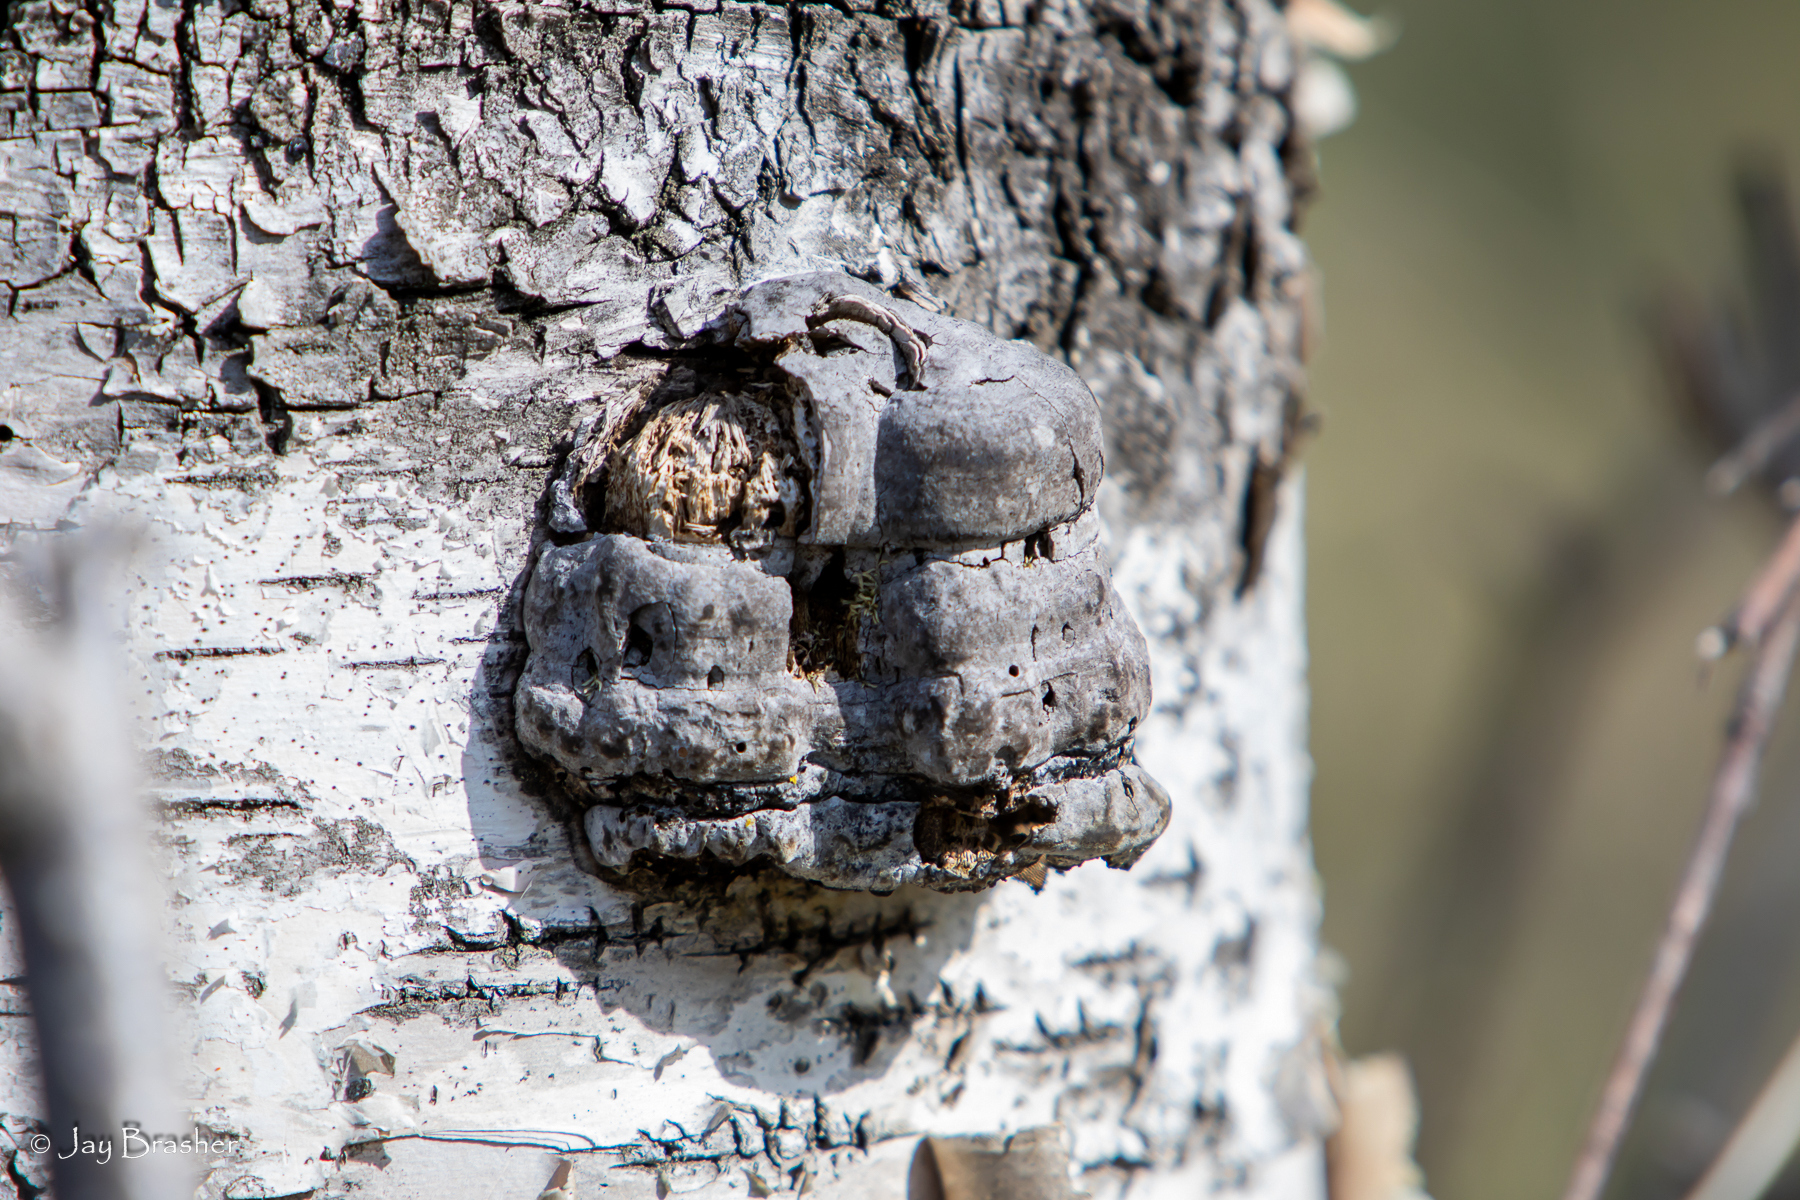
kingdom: Fungi
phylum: Basidiomycota
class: Agaricomycetes
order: Polyporales
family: Polyporaceae
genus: Fomes
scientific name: Fomes fomentarius
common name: Hoof fungus
